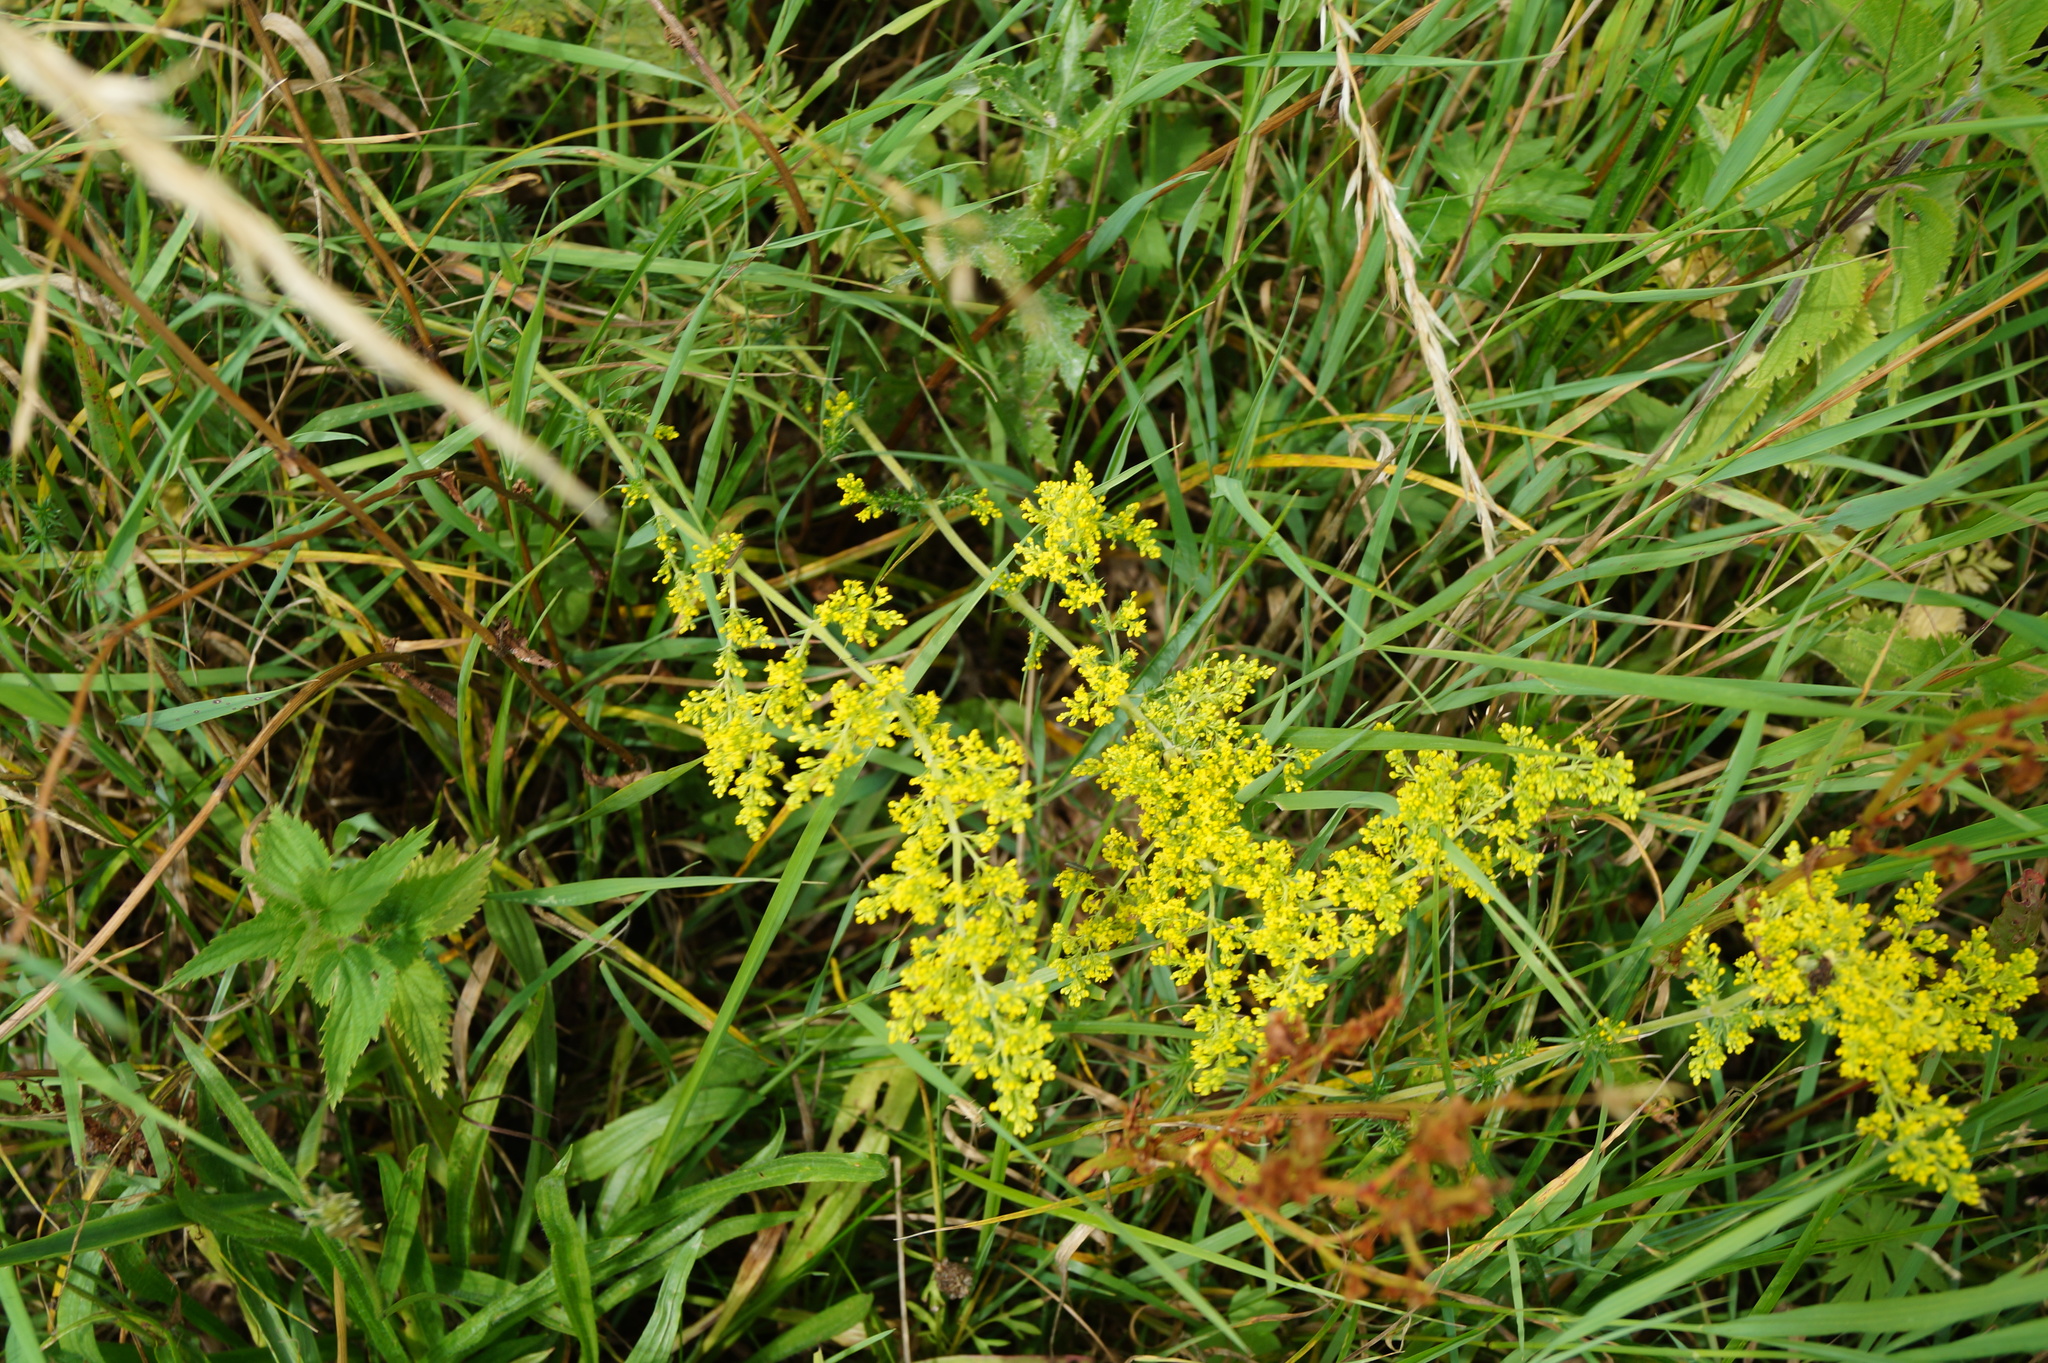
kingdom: Plantae
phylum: Tracheophyta
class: Magnoliopsida
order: Gentianales
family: Rubiaceae
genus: Galium
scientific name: Galium verum
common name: Lady's bedstraw
